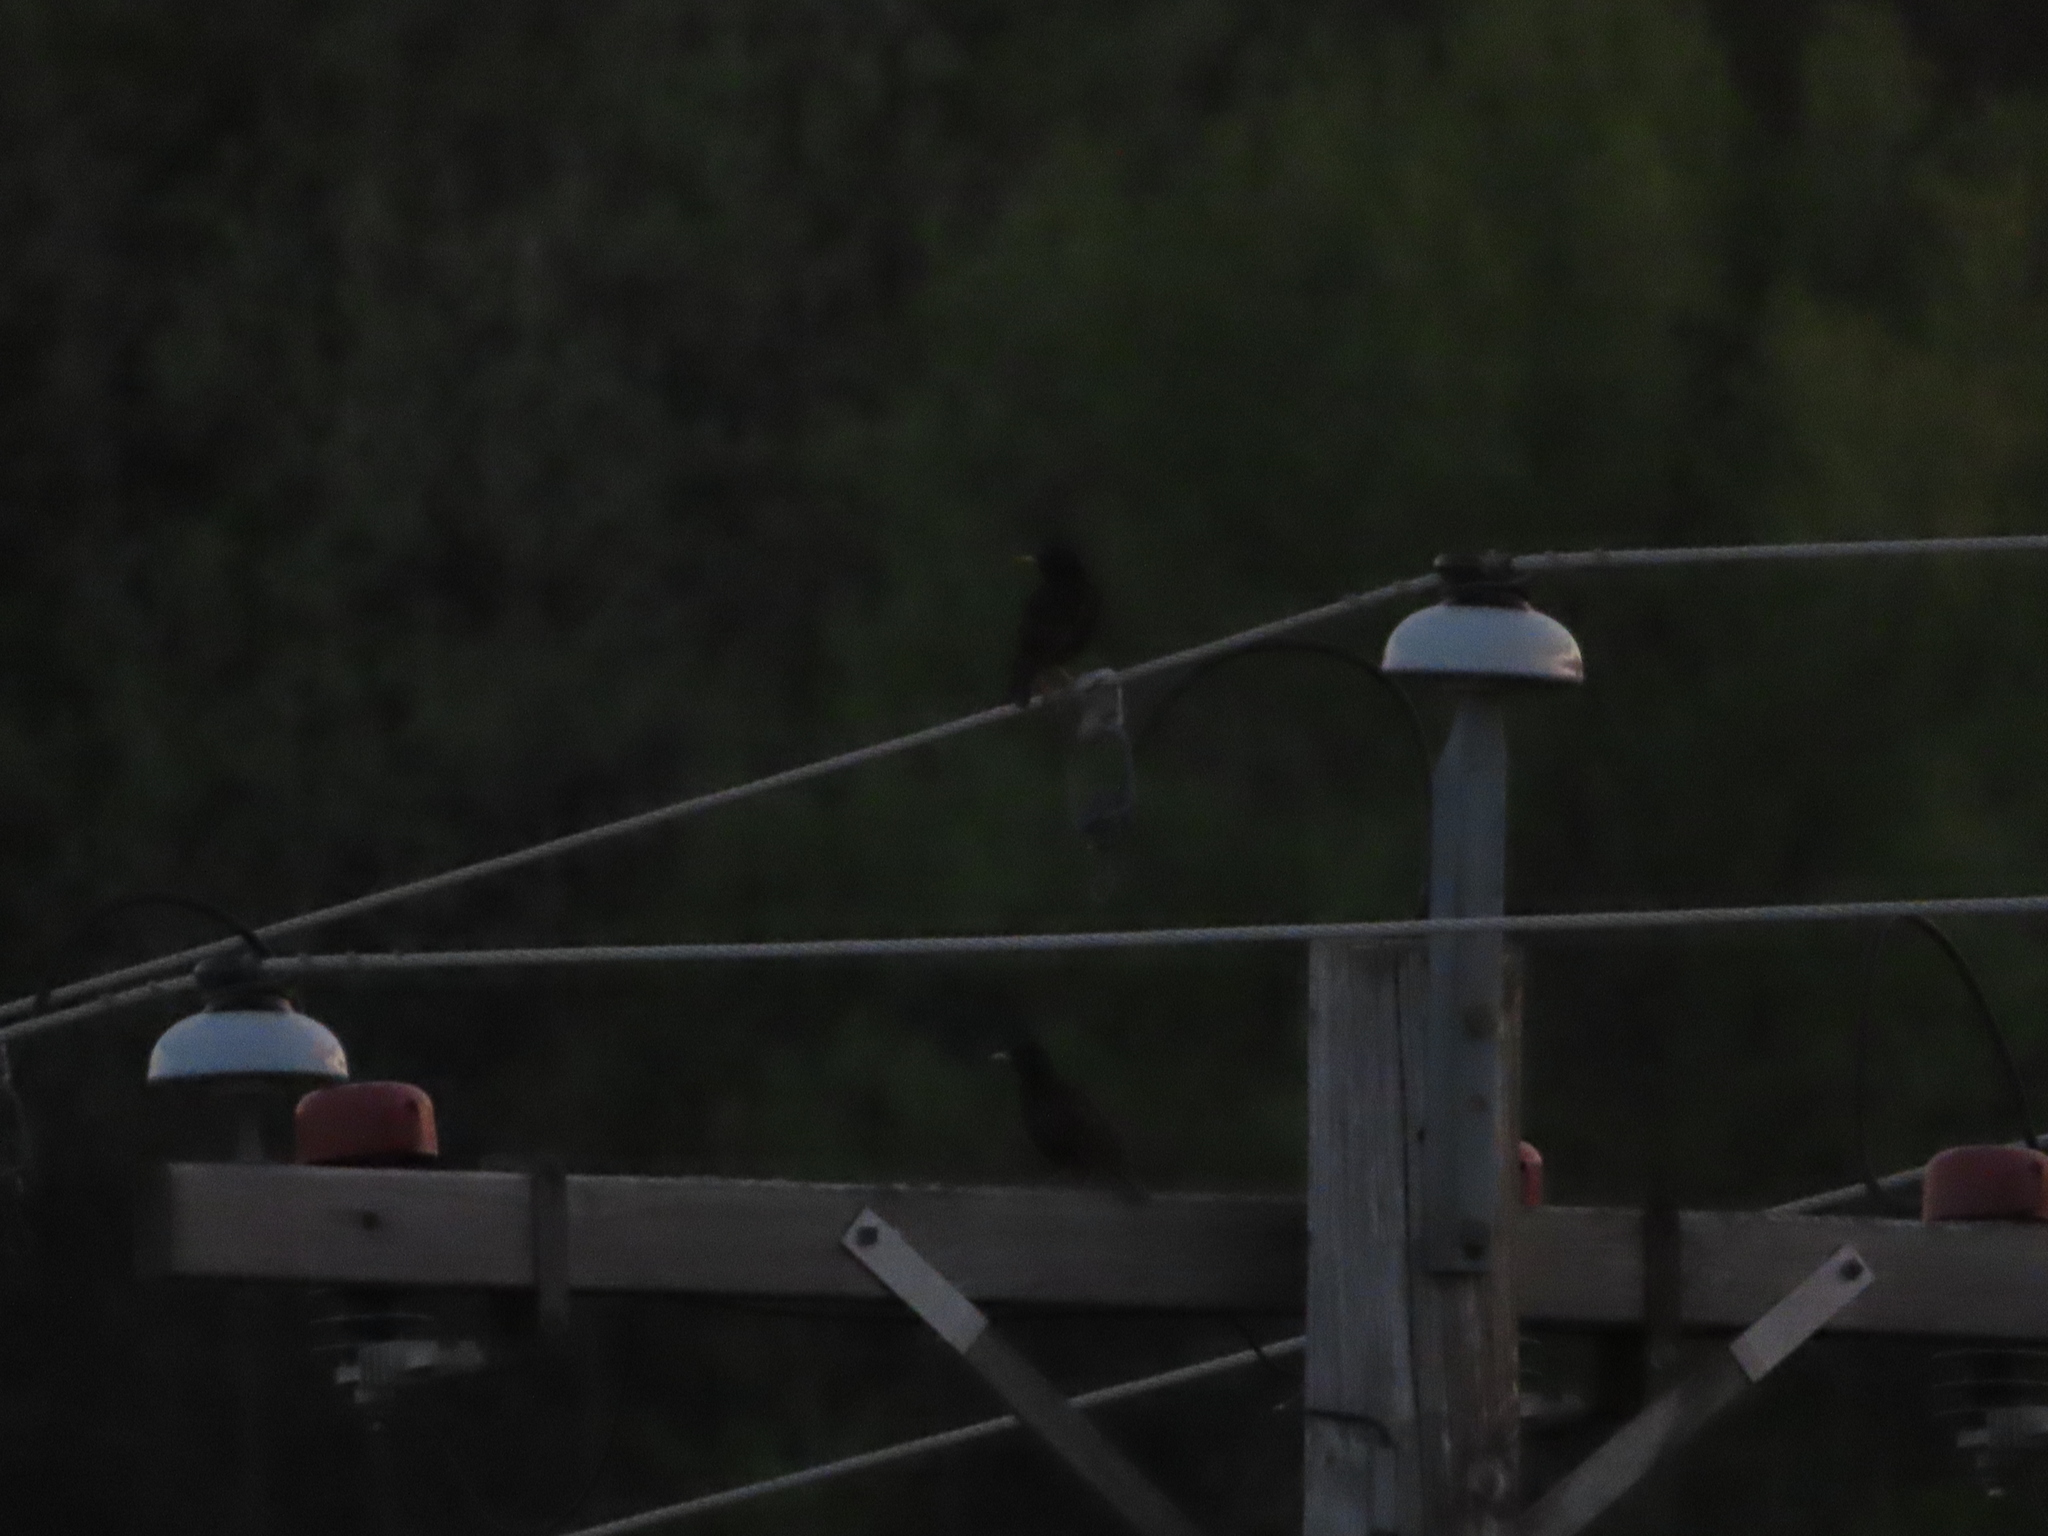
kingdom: Animalia
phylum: Chordata
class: Aves
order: Passeriformes
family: Sturnidae
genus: Sturnus
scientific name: Sturnus vulgaris
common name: Common starling
